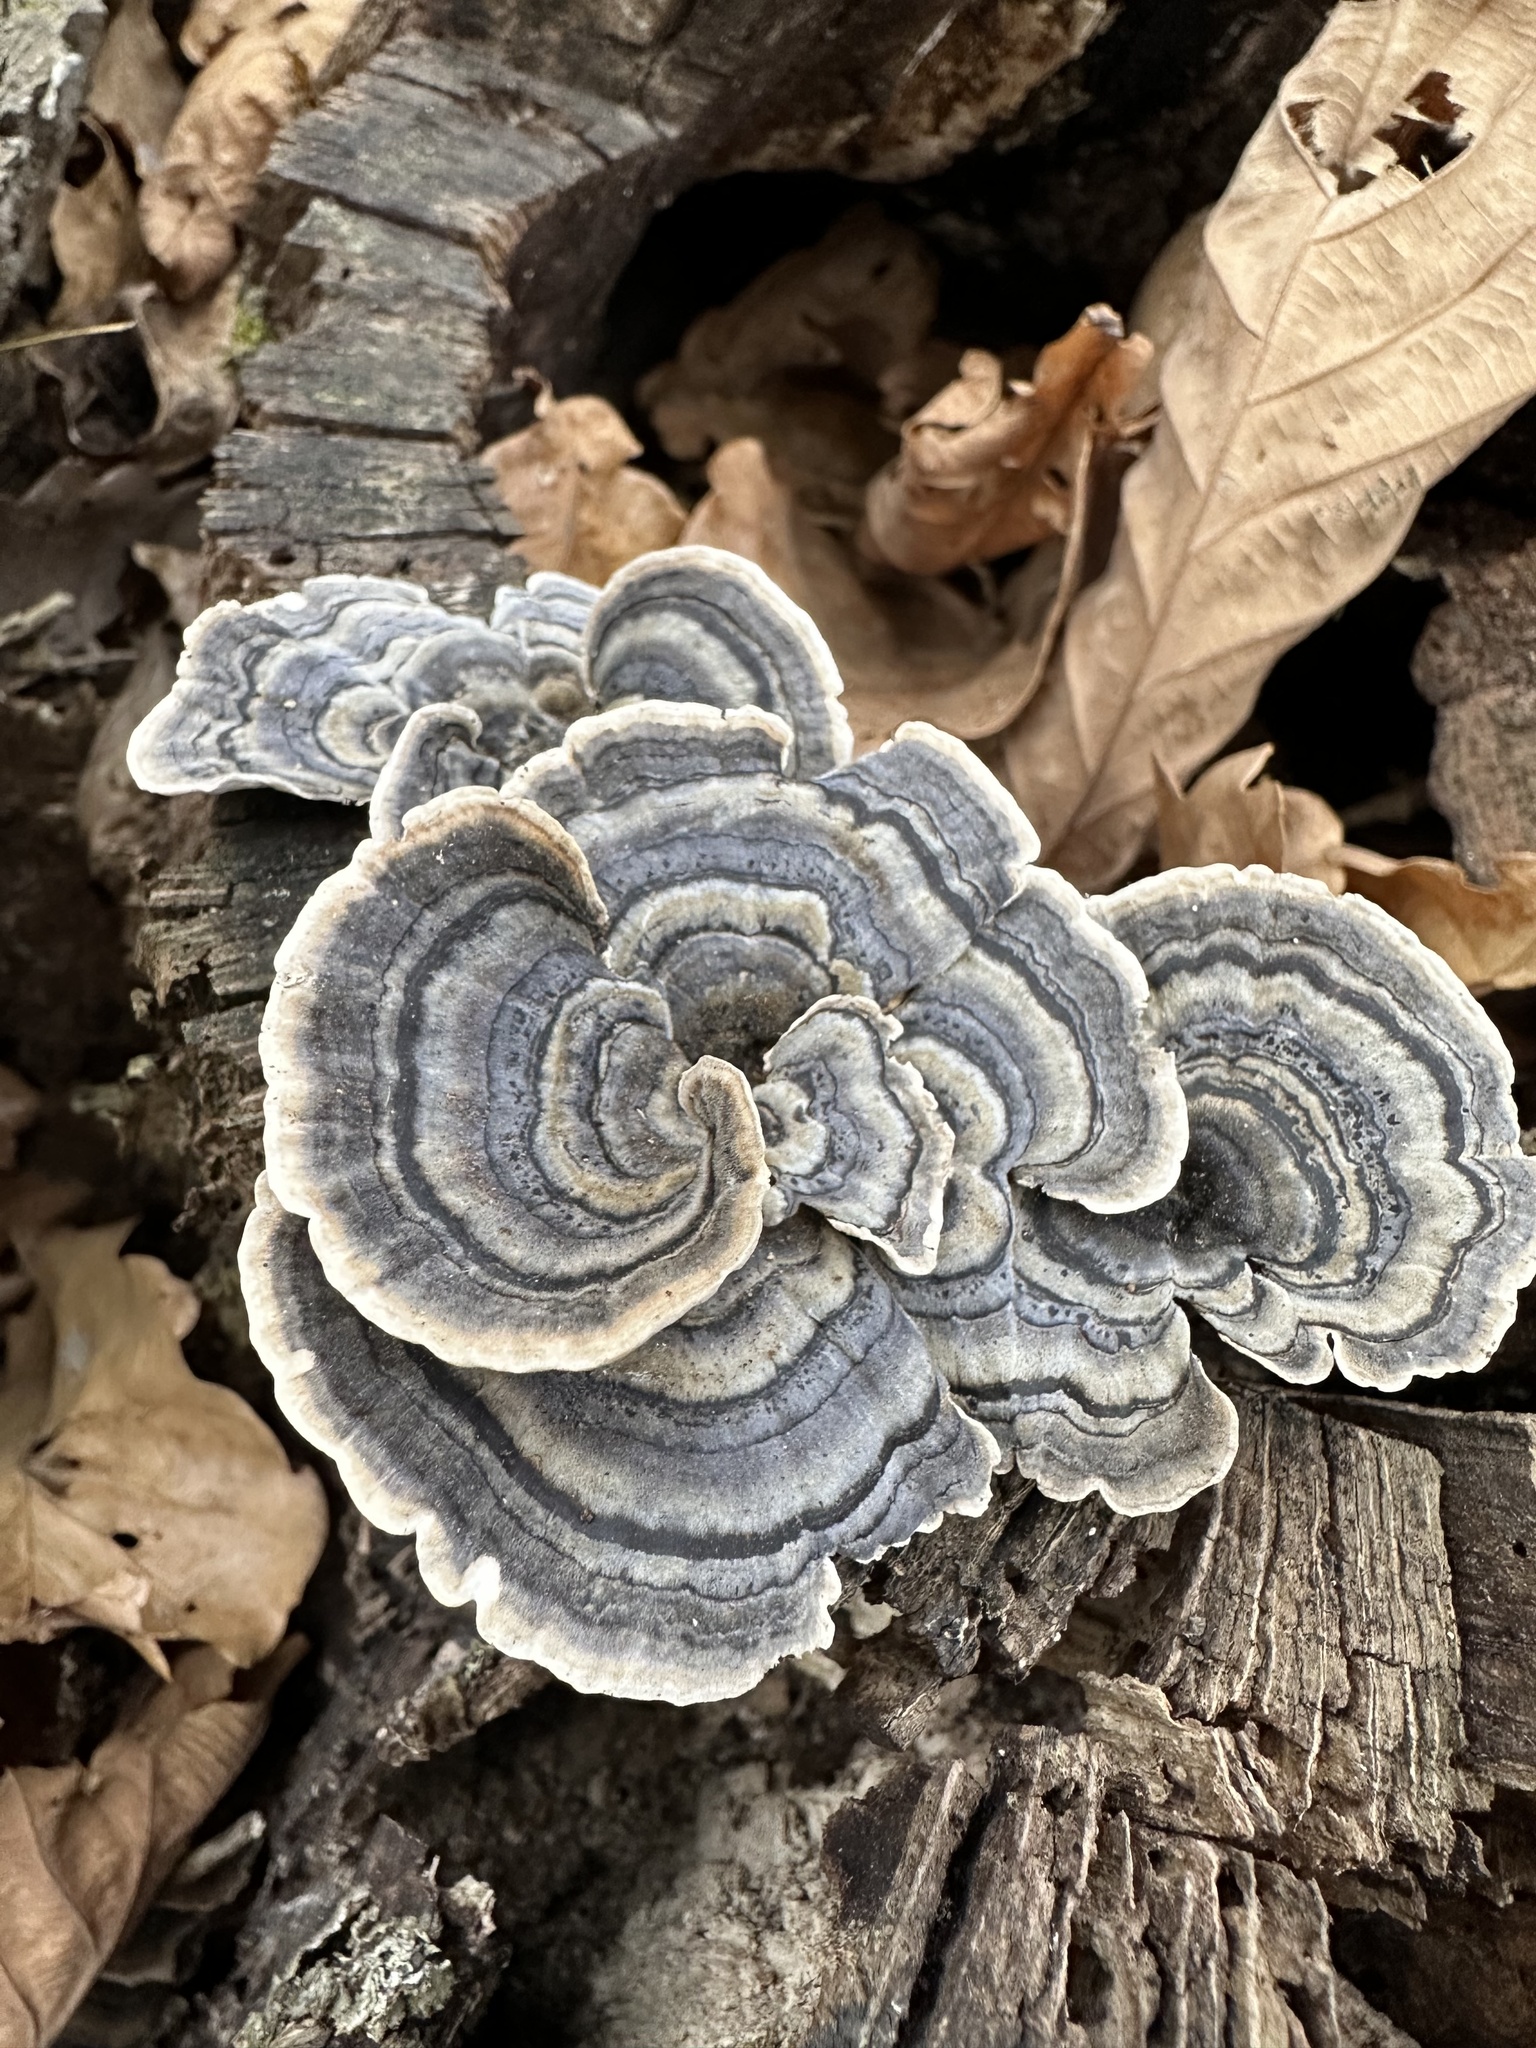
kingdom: Fungi
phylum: Basidiomycota
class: Agaricomycetes
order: Polyporales
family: Polyporaceae
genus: Trametes
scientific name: Trametes versicolor
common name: Turkeytail
